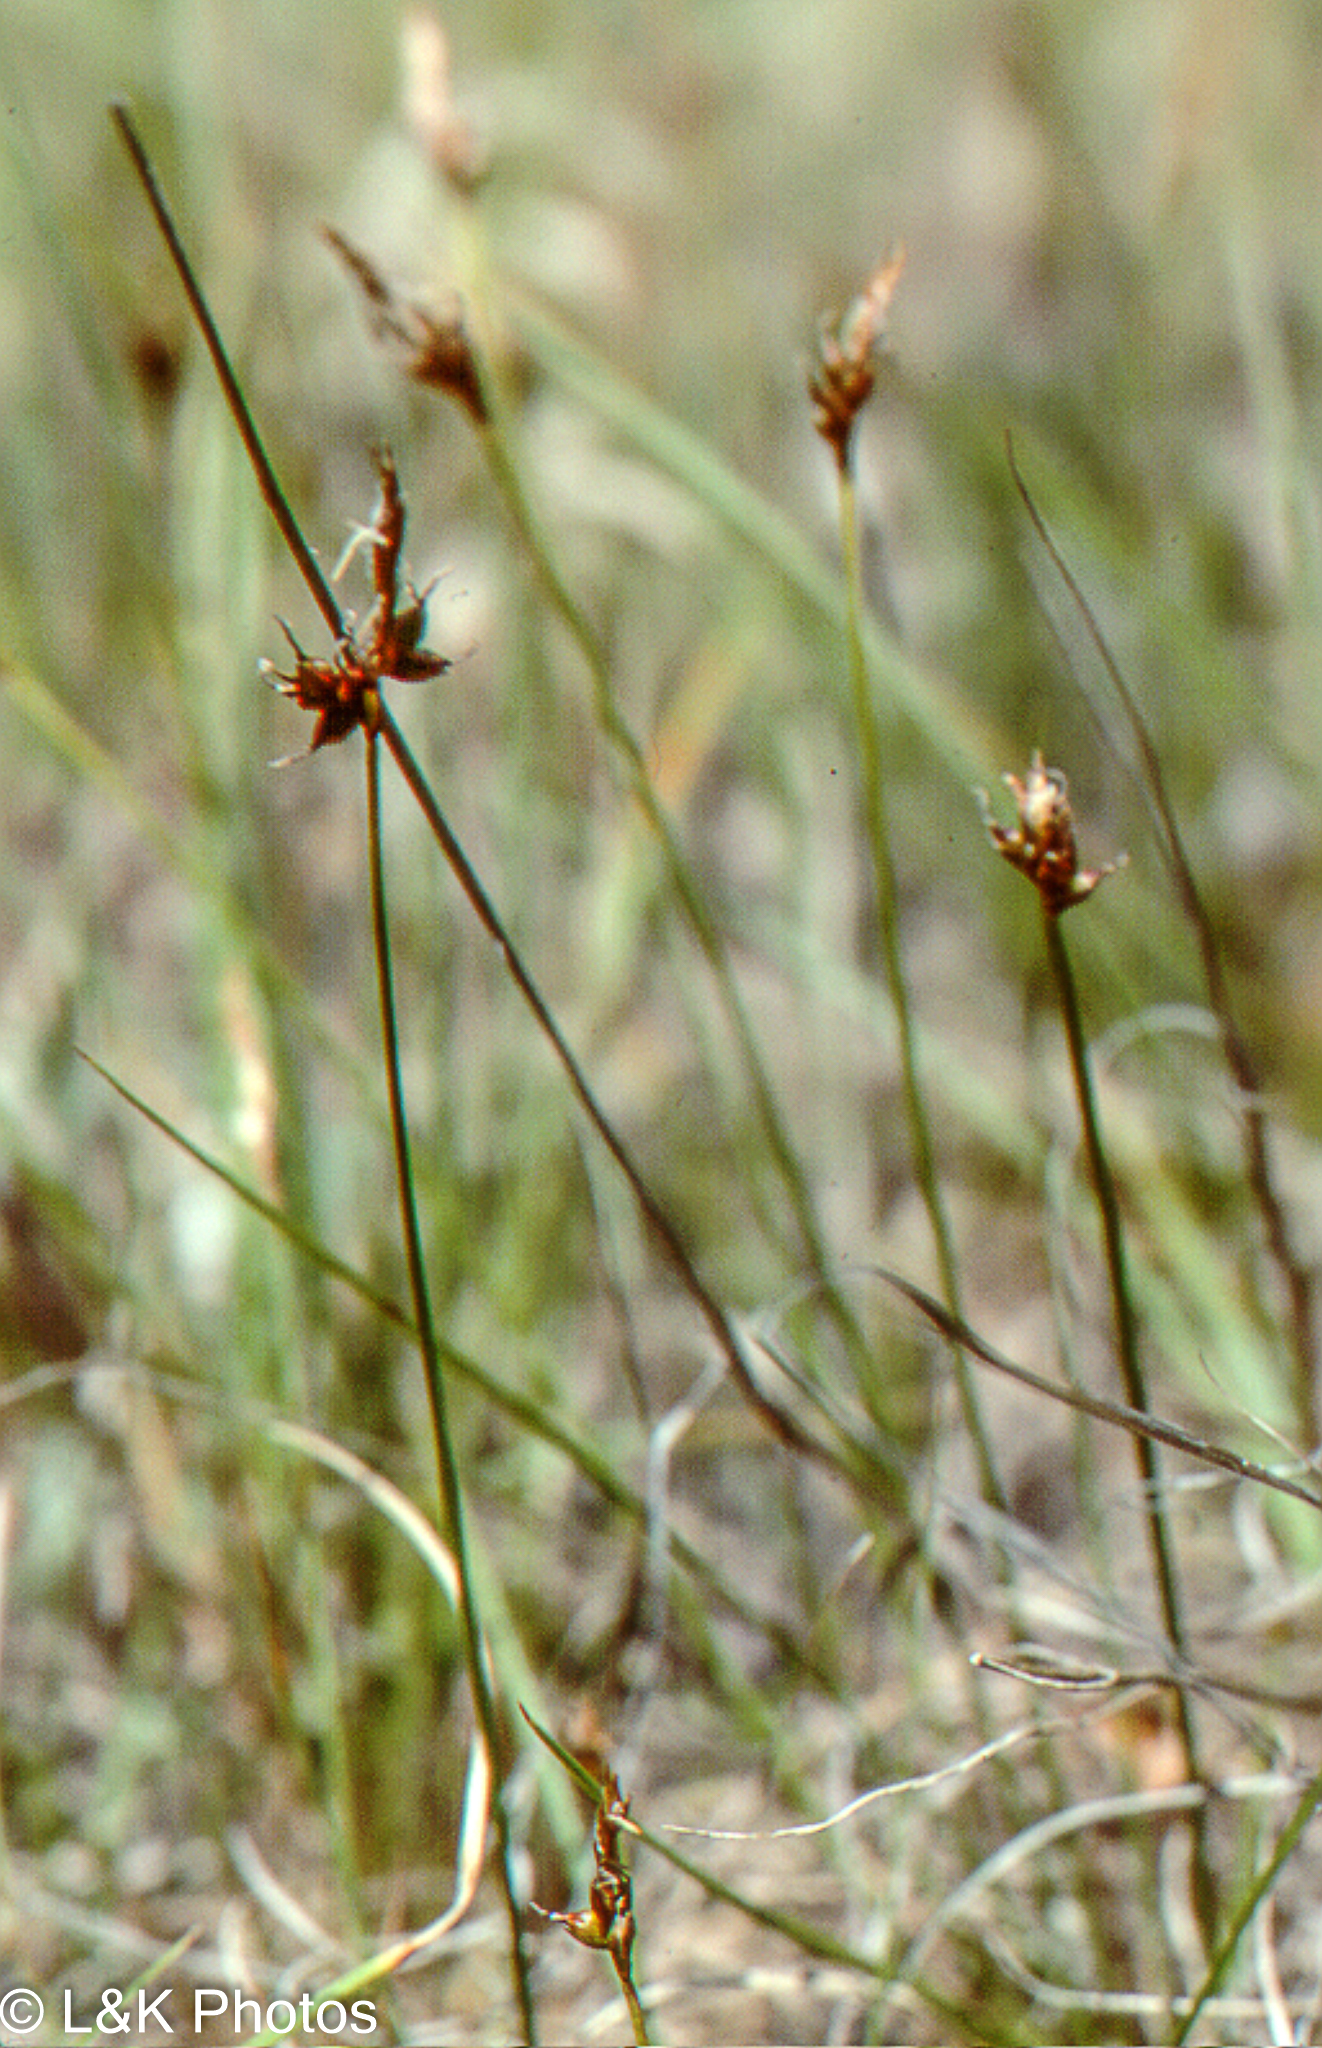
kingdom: Plantae
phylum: Tracheophyta
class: Liliopsida
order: Poales
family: Cyperaceae
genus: Carex
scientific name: Carex supina
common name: Lying-back sedge
